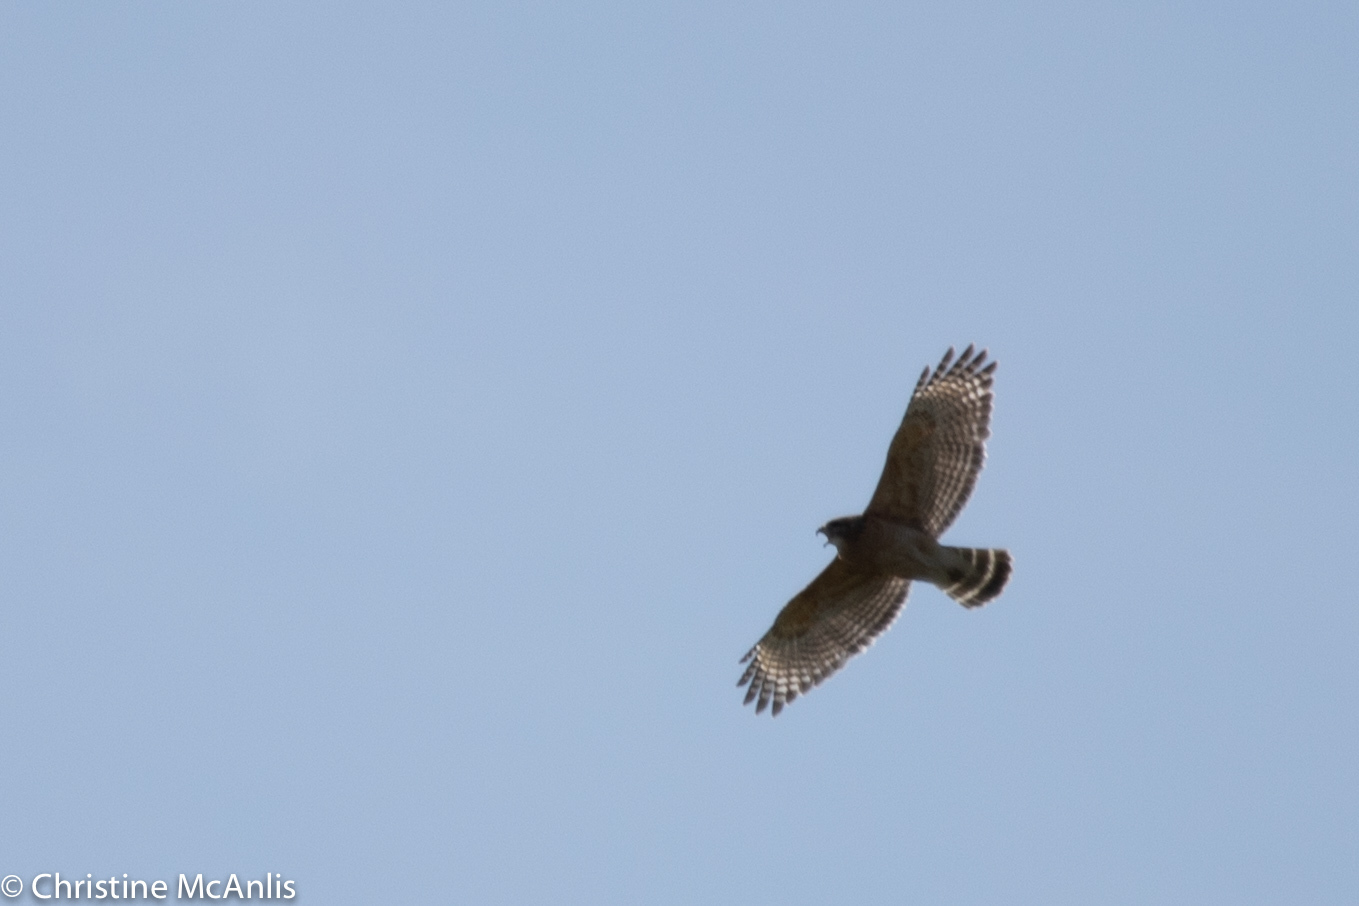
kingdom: Animalia
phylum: Chordata
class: Aves
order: Accipitriformes
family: Accipitridae
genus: Buteo
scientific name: Buteo lineatus
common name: Red-shouldered hawk
